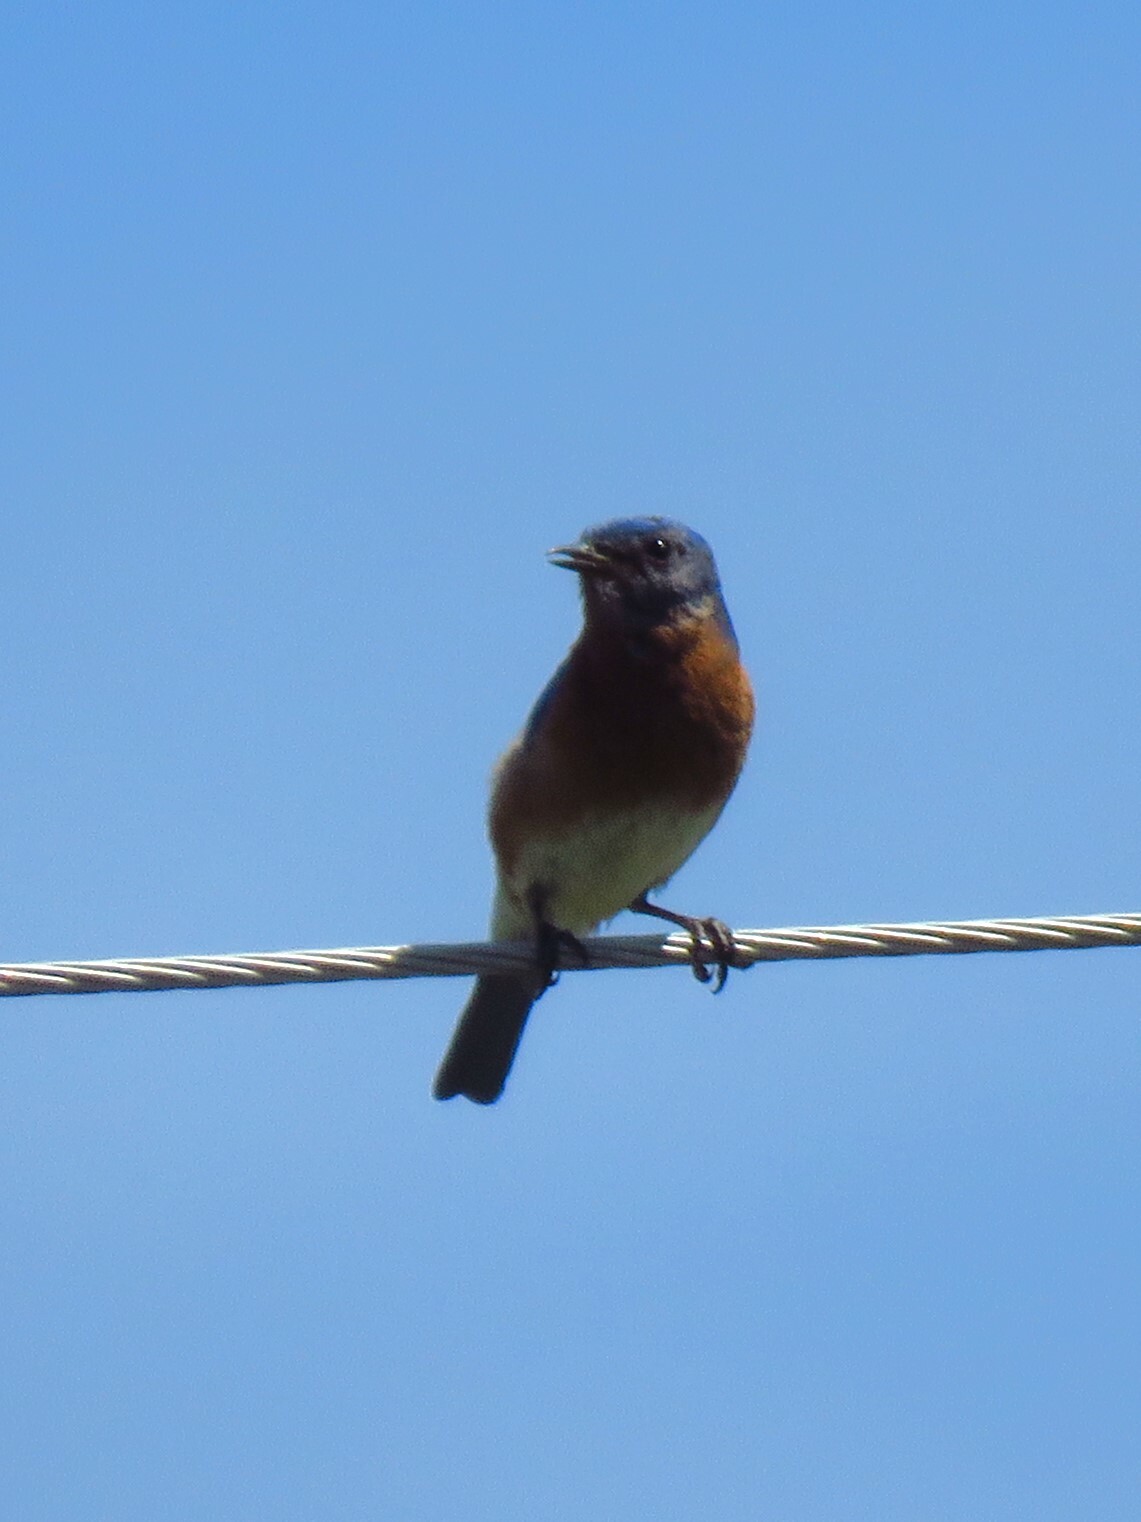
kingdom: Animalia
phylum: Chordata
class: Aves
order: Passeriformes
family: Turdidae
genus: Sialia
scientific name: Sialia sialis
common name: Eastern bluebird
